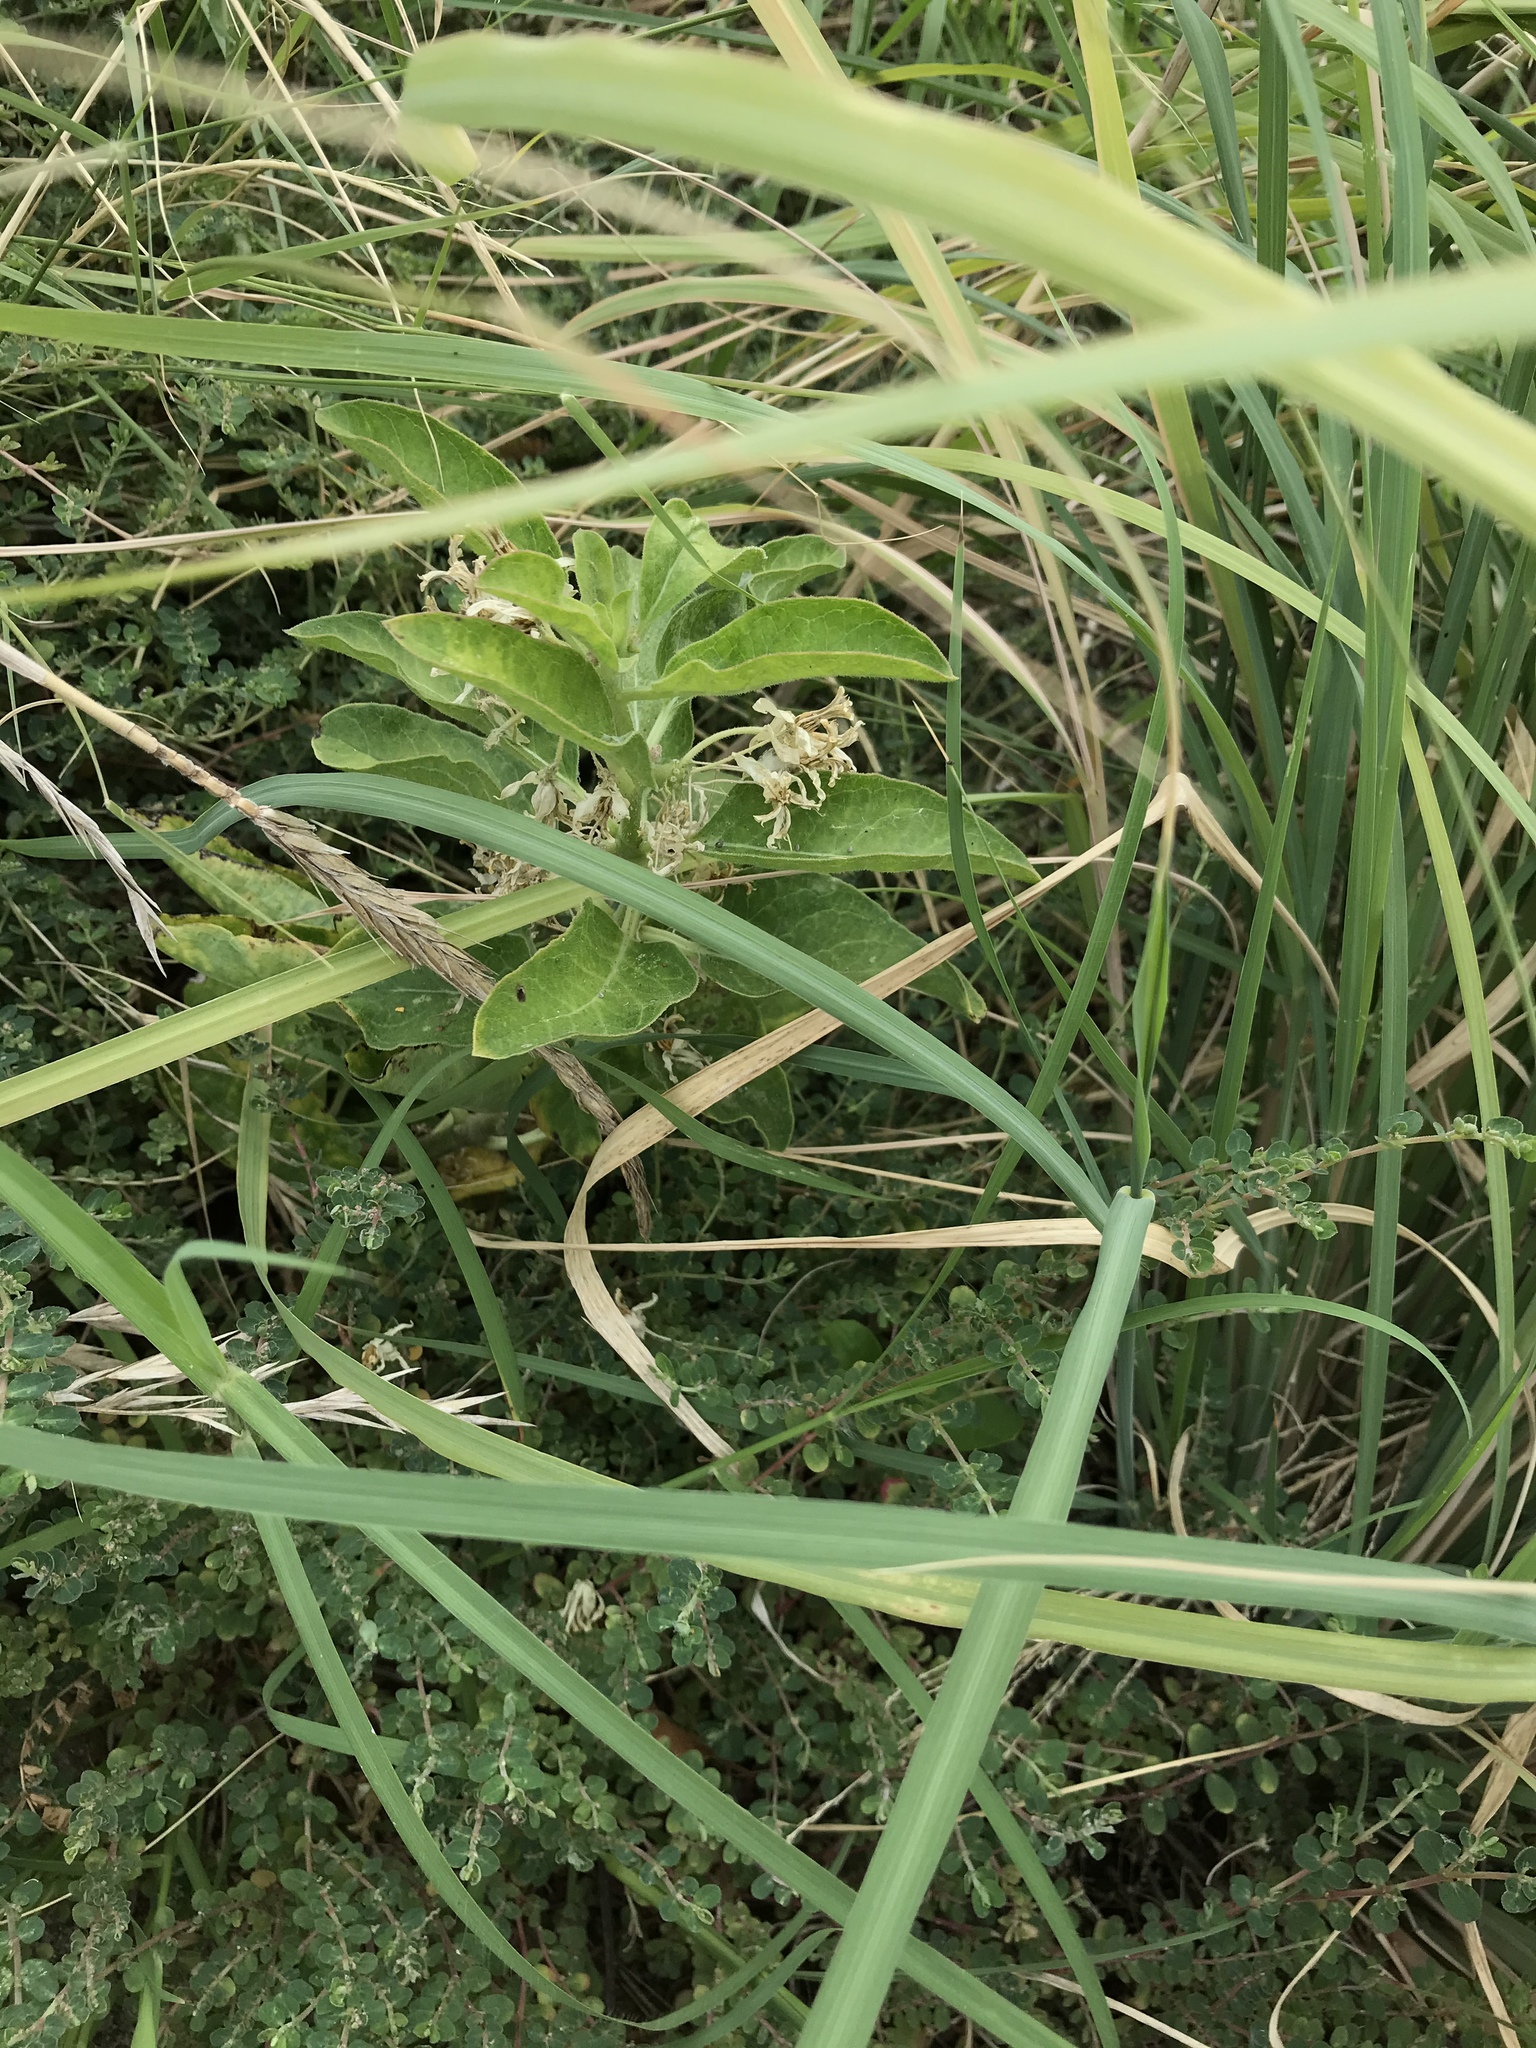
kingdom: Plantae
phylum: Tracheophyta
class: Magnoliopsida
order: Gentianales
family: Apocynaceae
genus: Asclepias
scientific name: Asclepias oenotheroides
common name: Zizotes milkweed
